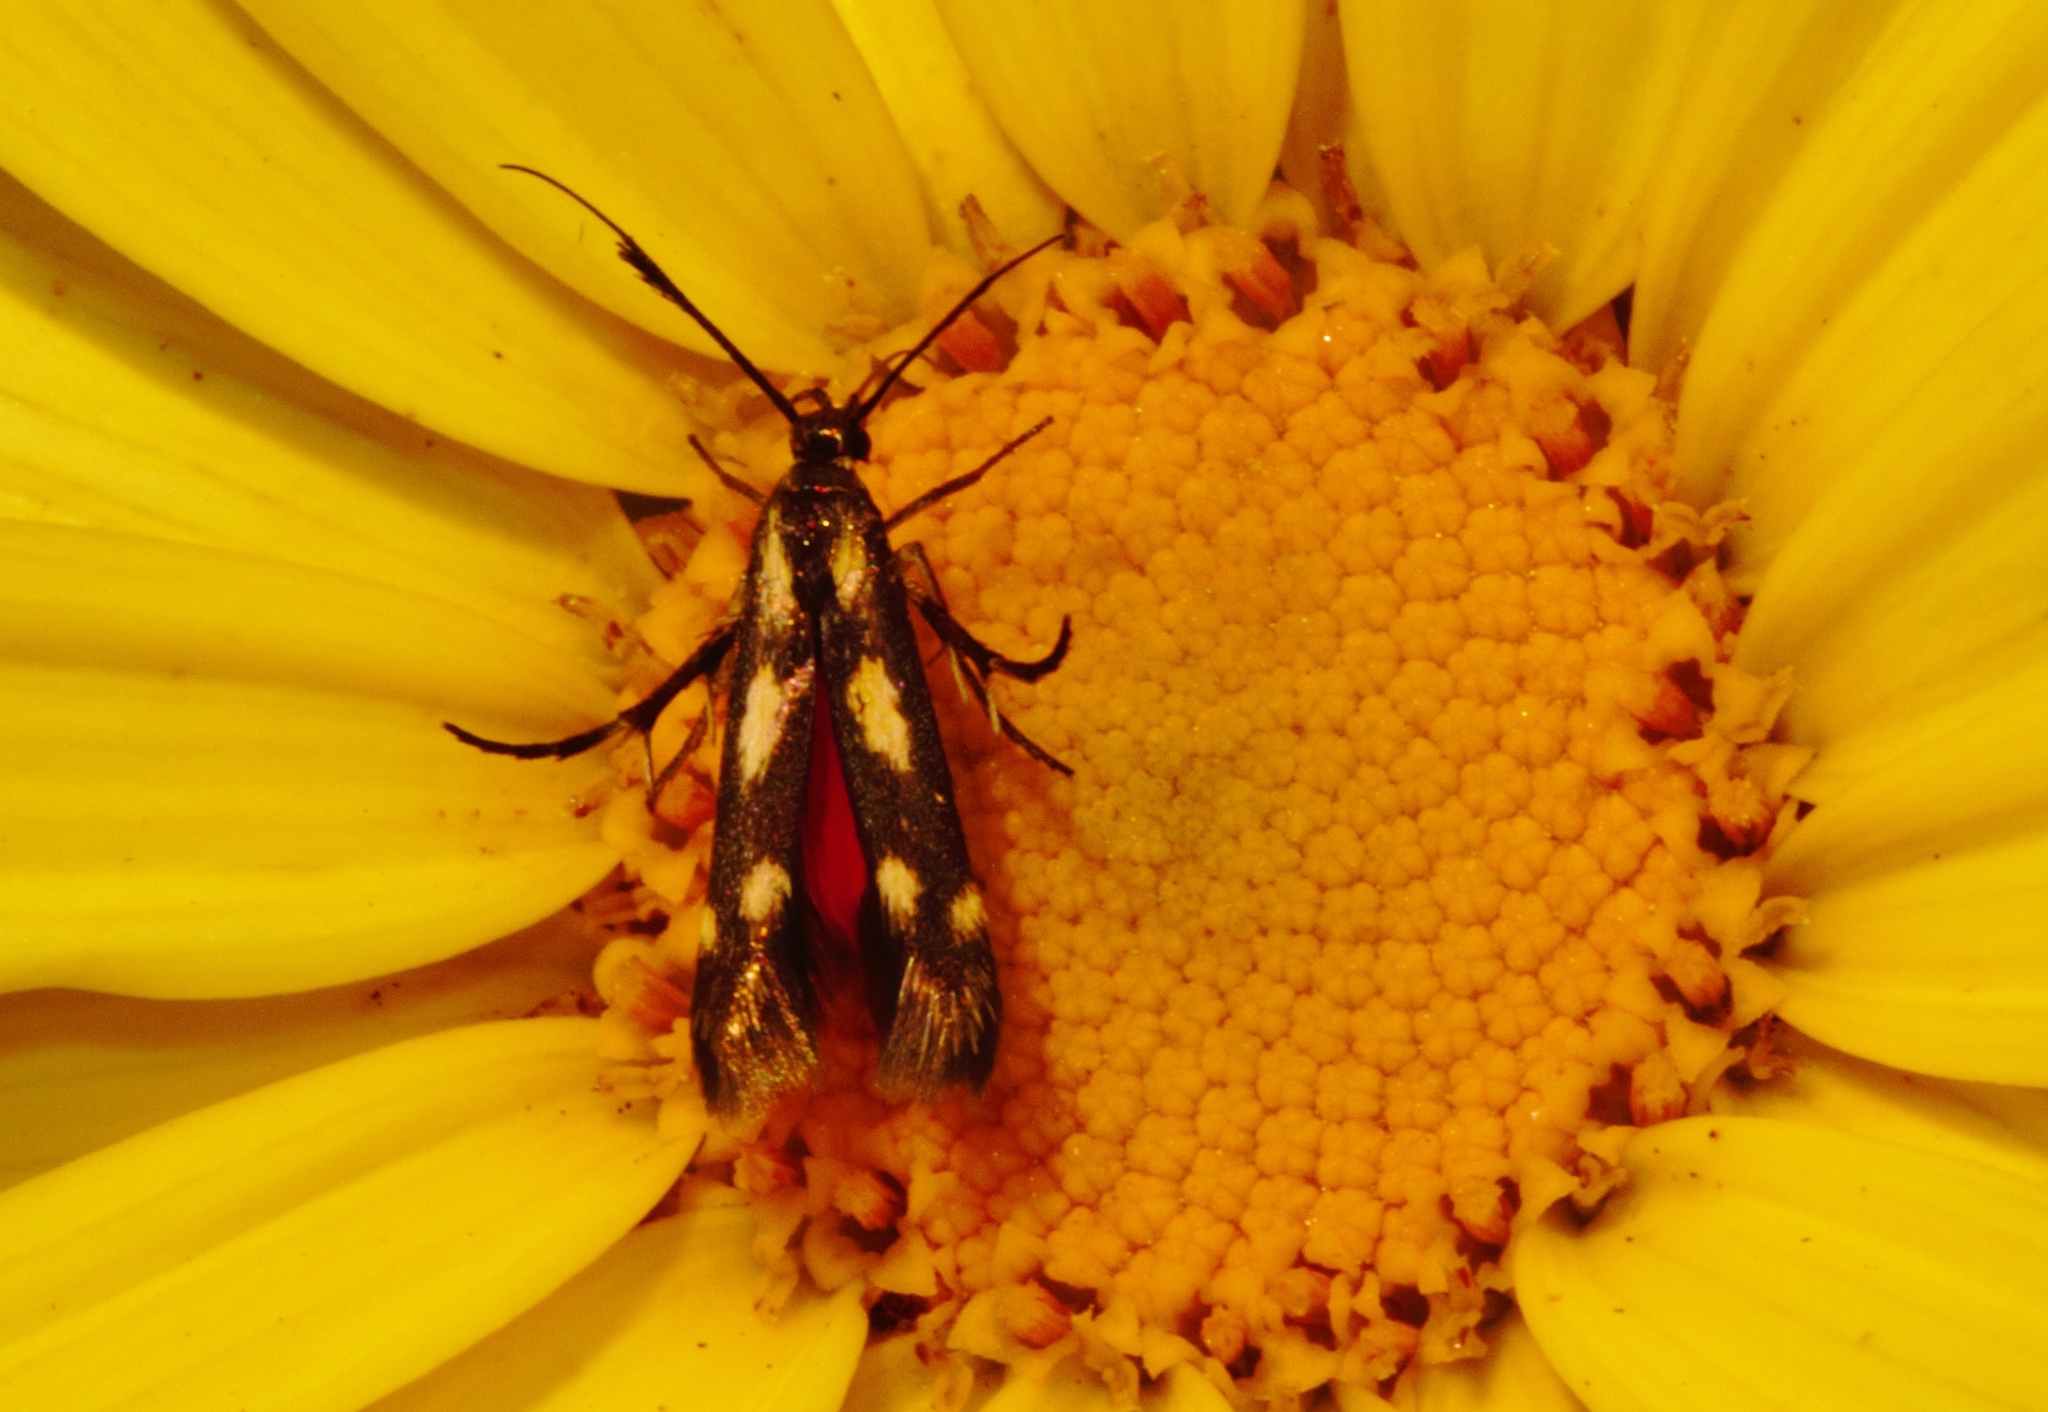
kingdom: Animalia
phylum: Arthropoda
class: Insecta
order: Lepidoptera
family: Scythrididae
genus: Eretmocera
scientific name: Eretmocera syleuta
